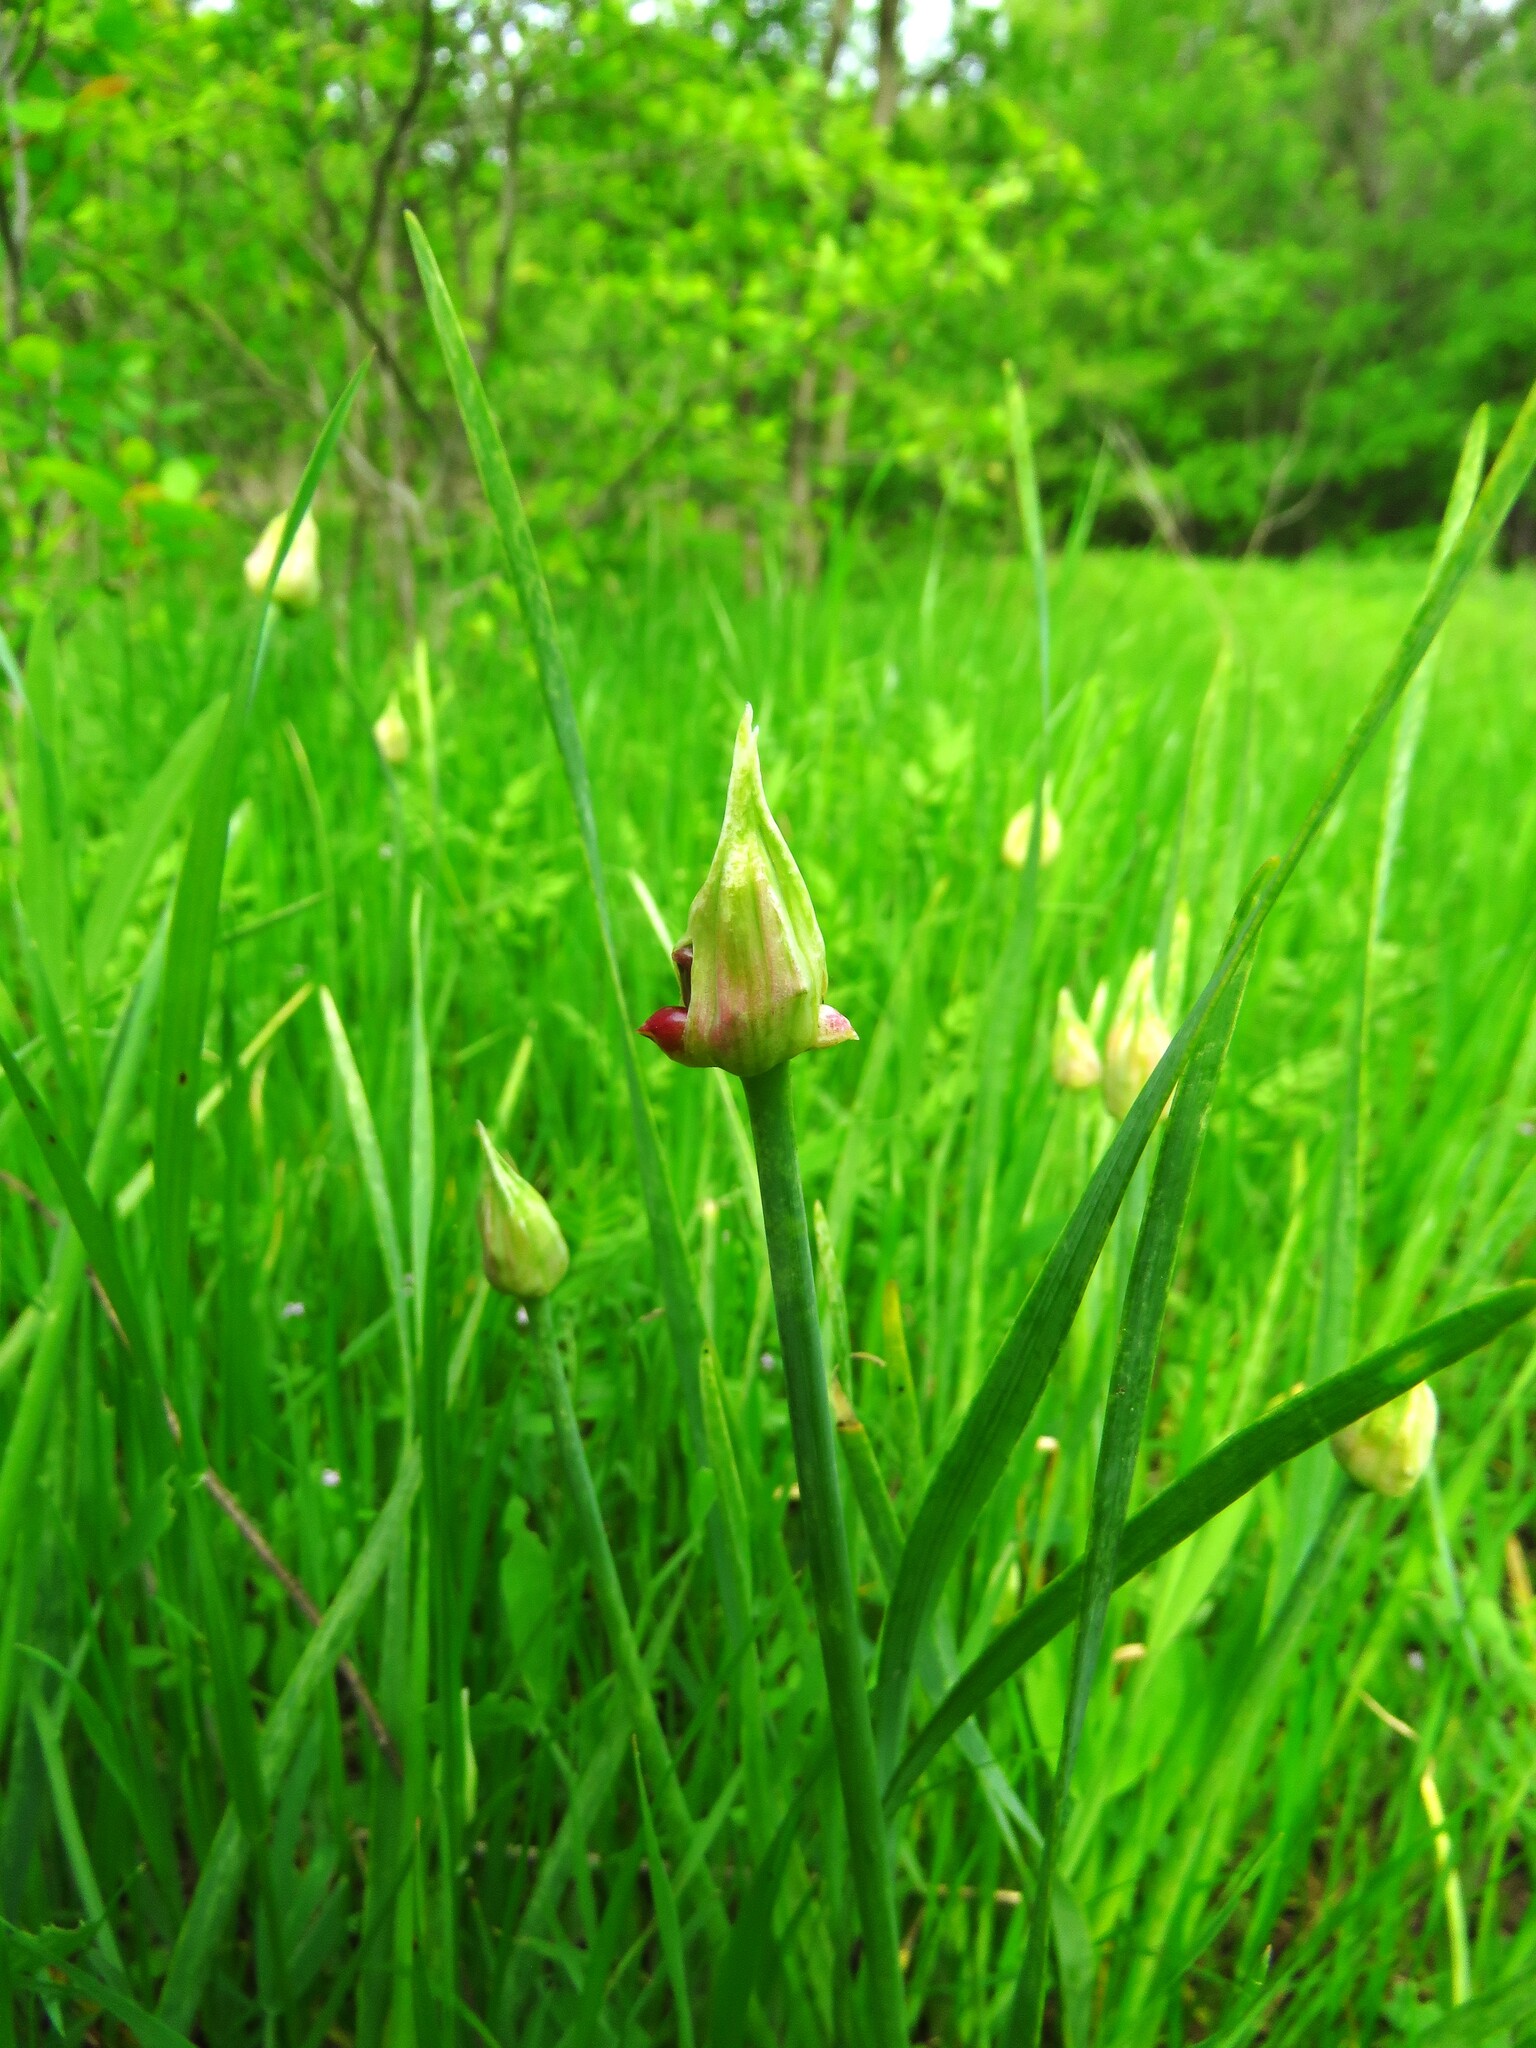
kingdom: Plantae
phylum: Tracheophyta
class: Liliopsida
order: Asparagales
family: Amaryllidaceae
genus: Allium
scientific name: Allium canadense
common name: Meadow garlic
